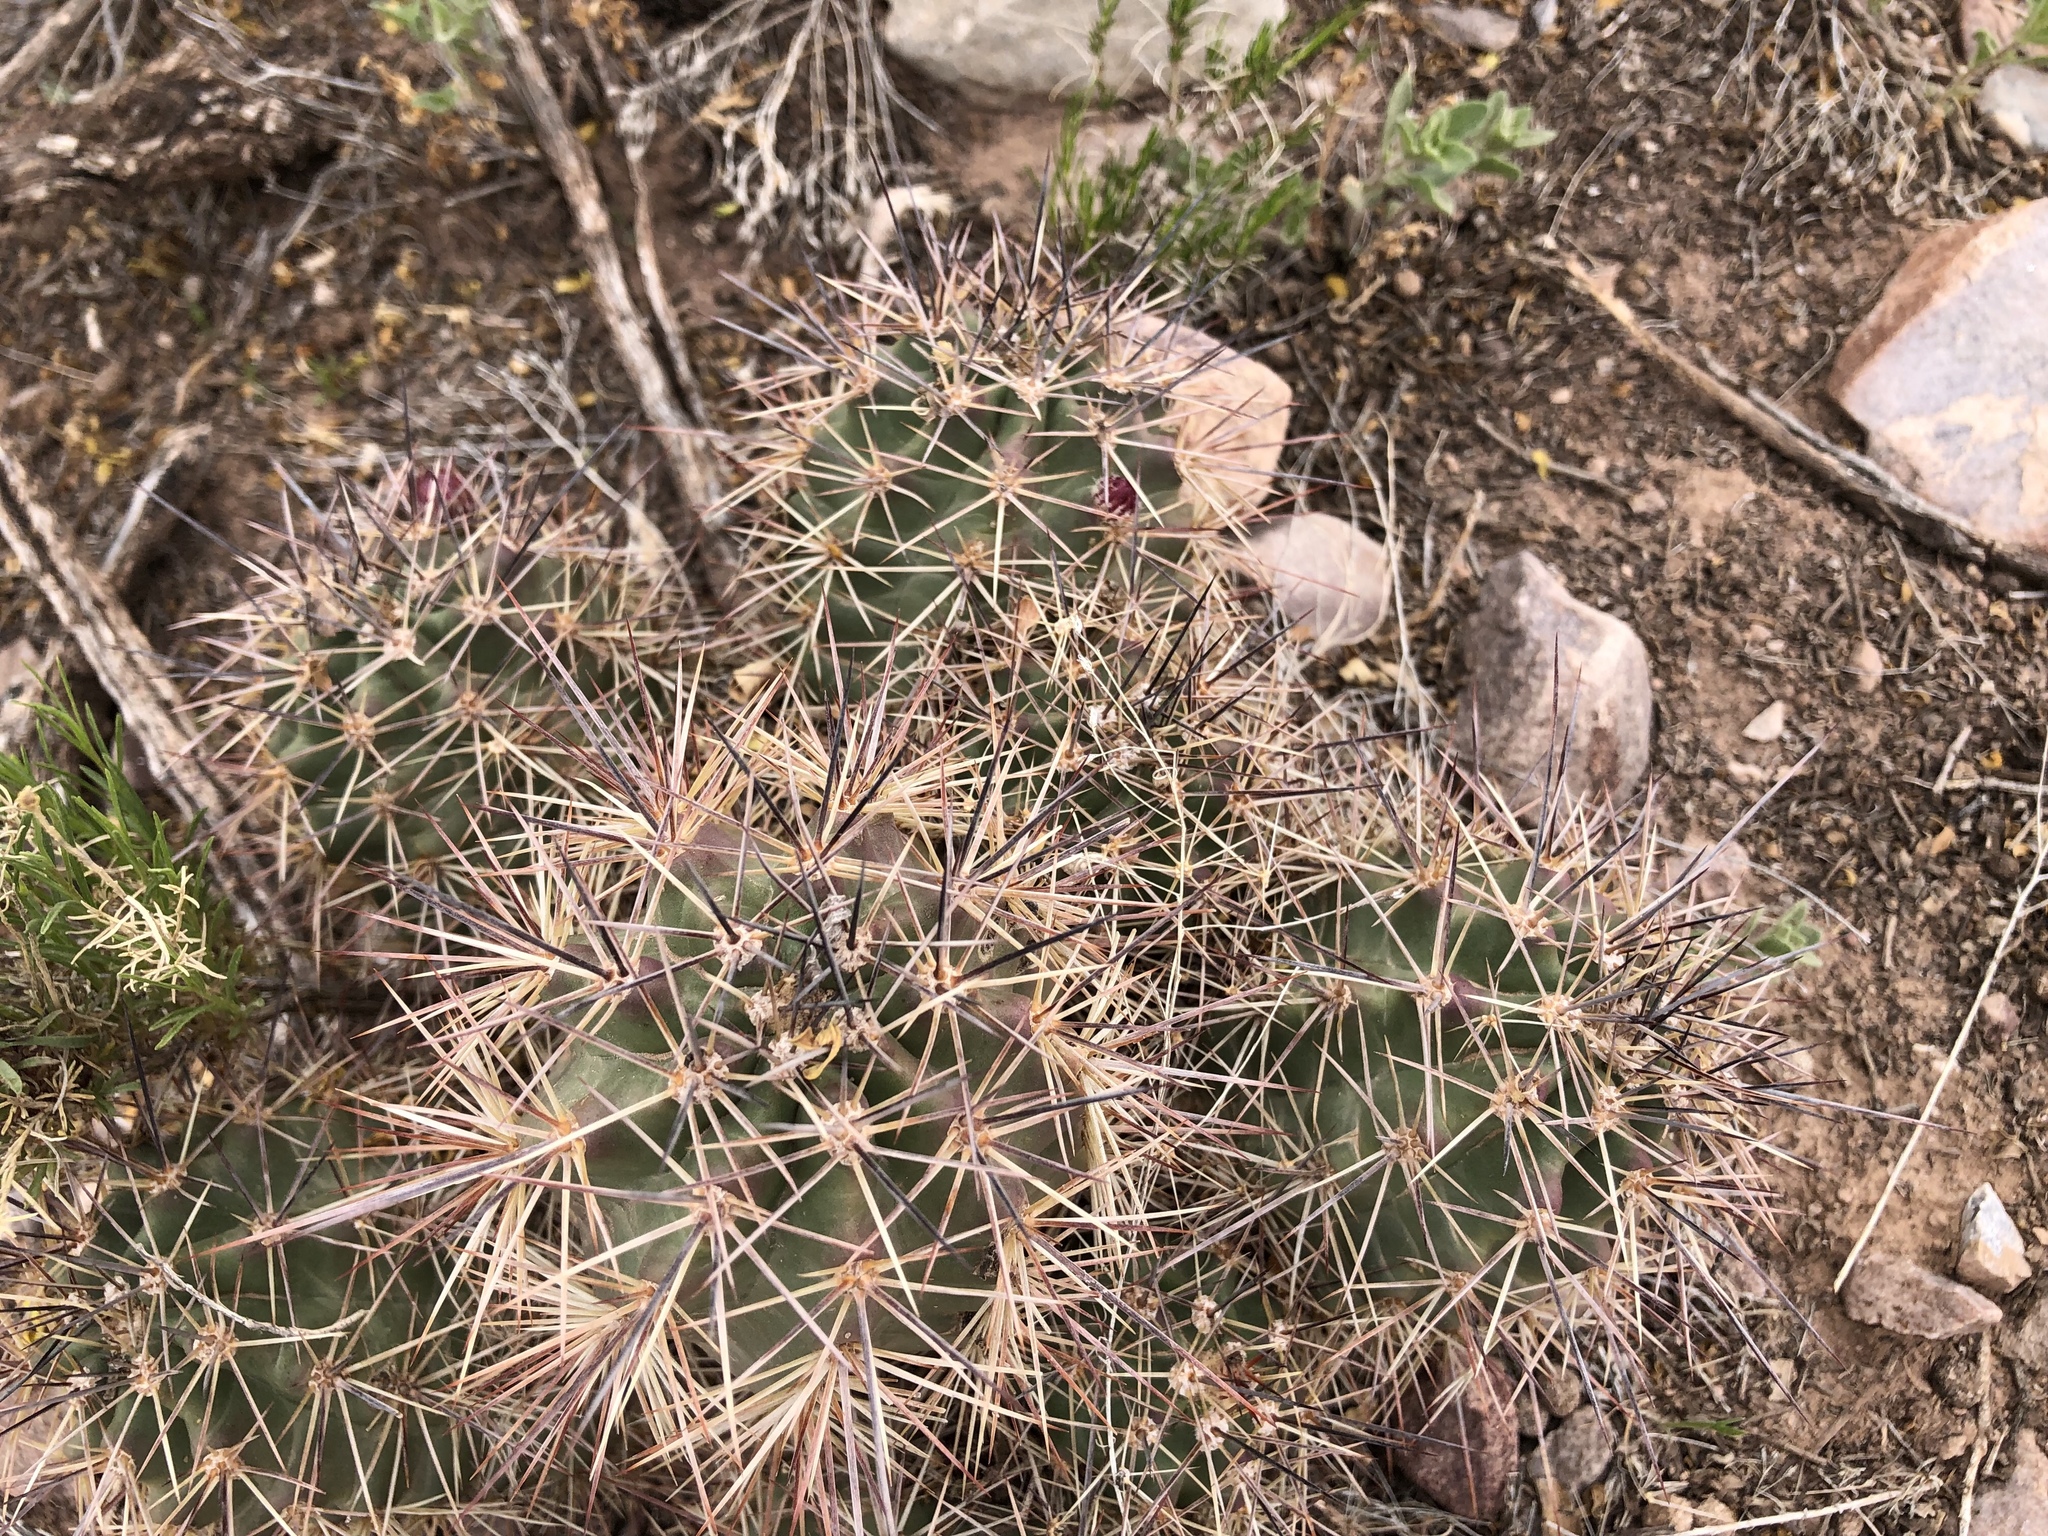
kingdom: Plantae
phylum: Tracheophyta
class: Magnoliopsida
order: Caryophyllales
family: Cactaceae
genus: Echinocereus
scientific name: Echinocereus coccineus
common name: Scarlet hedgehog cactus
